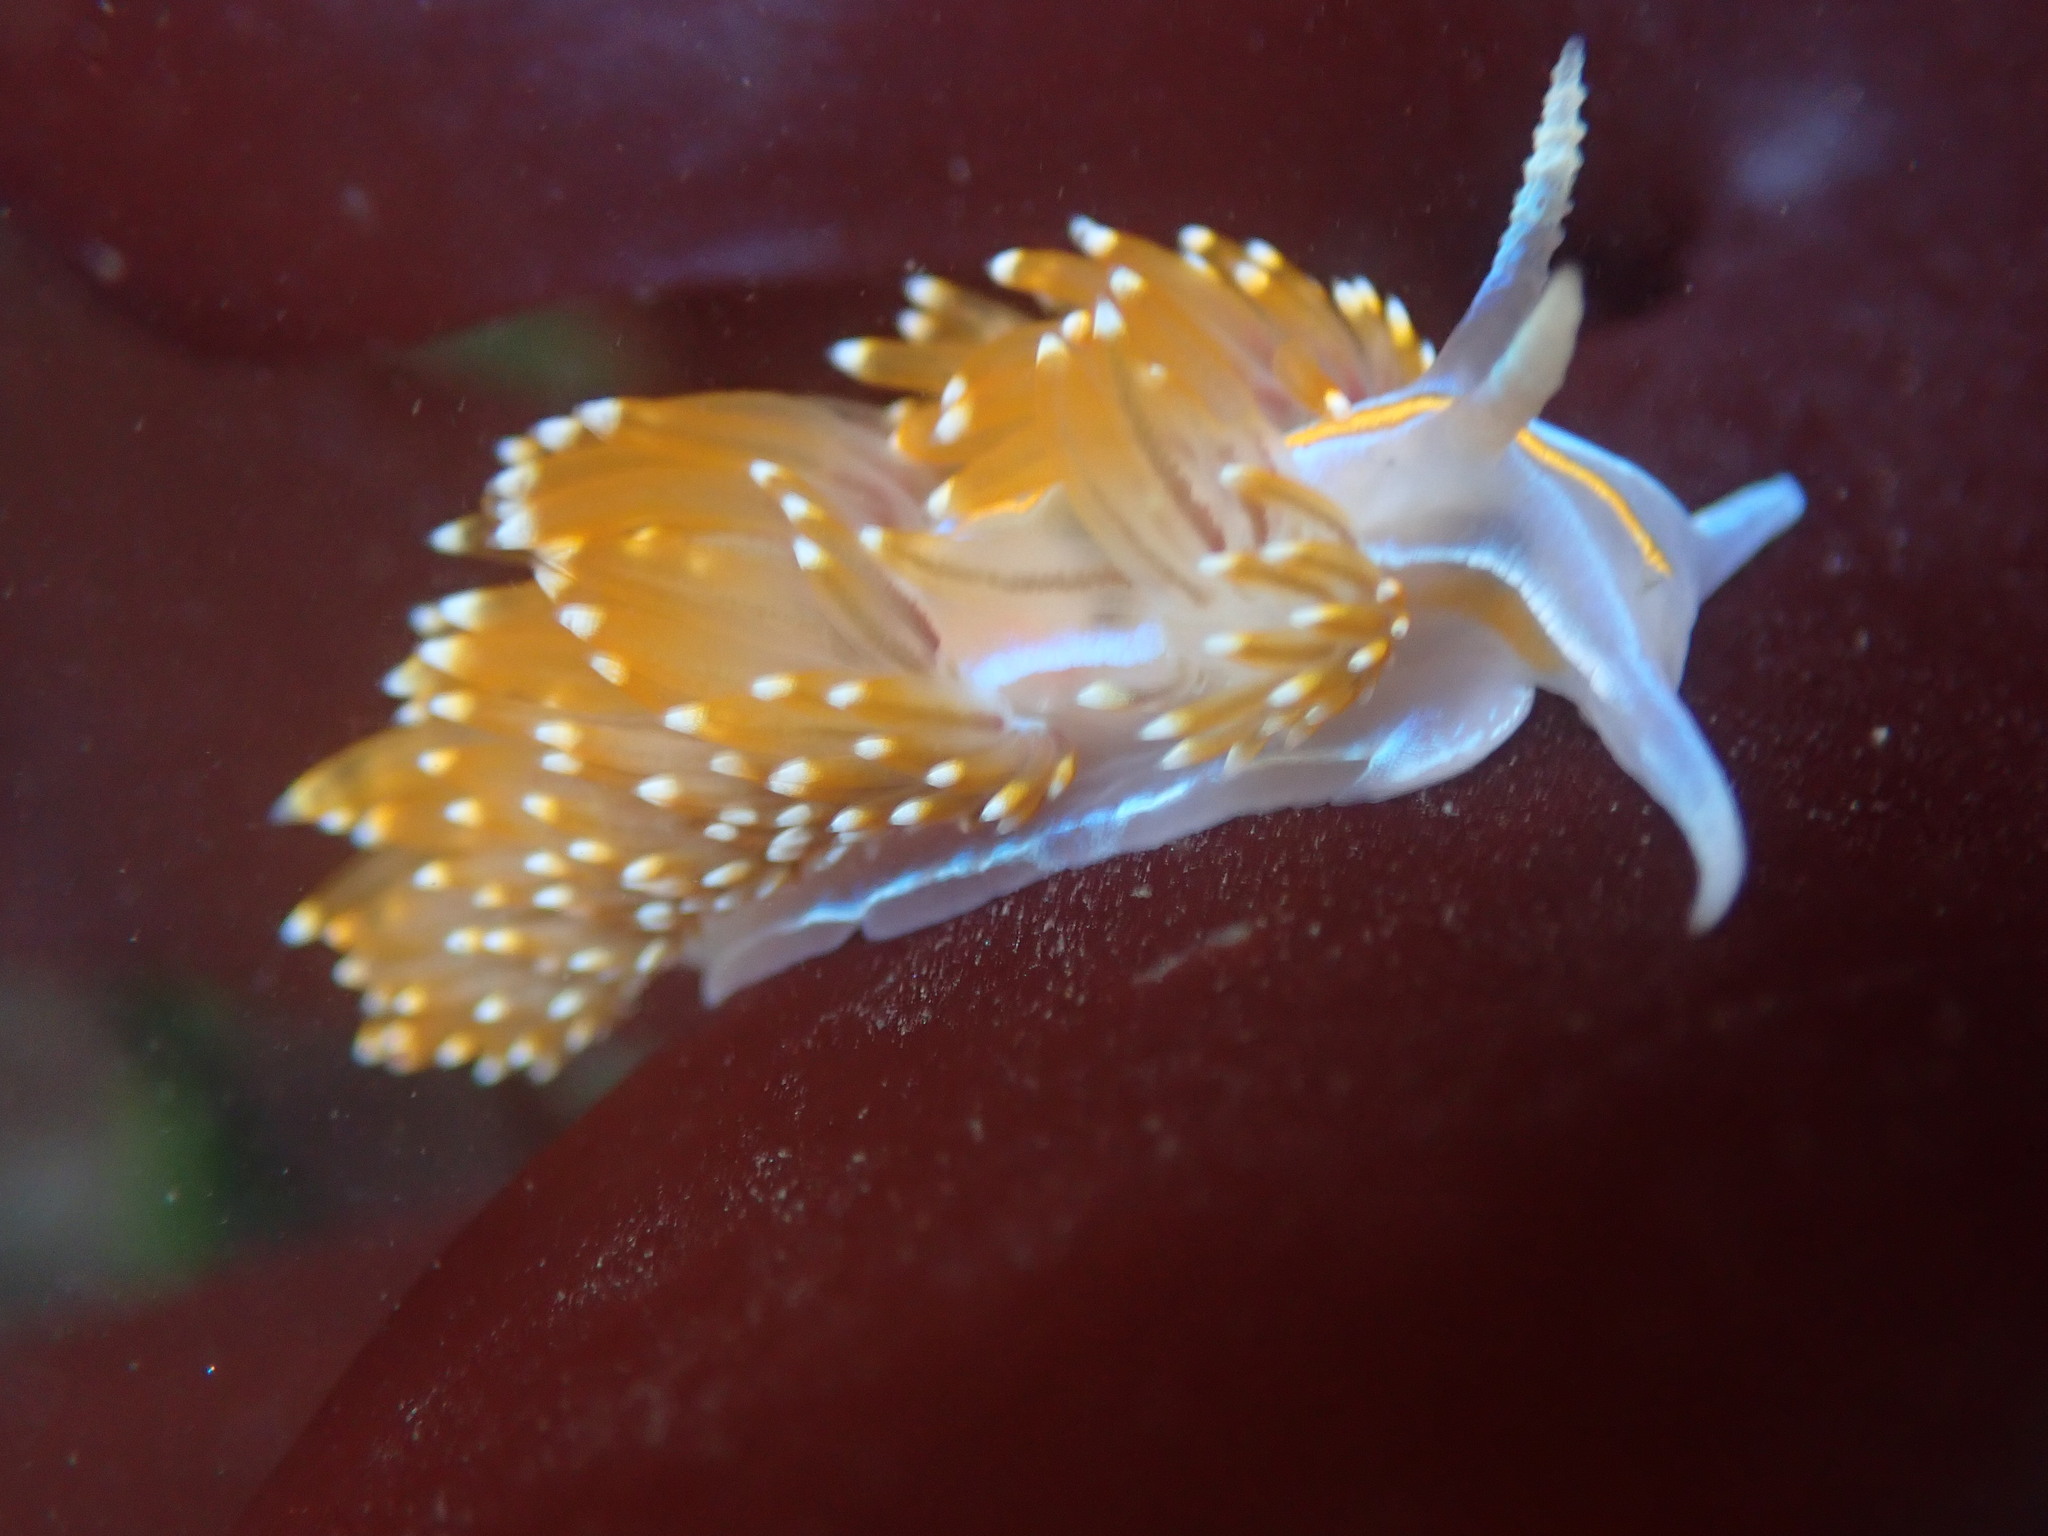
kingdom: Animalia
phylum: Mollusca
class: Gastropoda
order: Nudibranchia
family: Myrrhinidae
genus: Hermissenda
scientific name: Hermissenda opalescens
